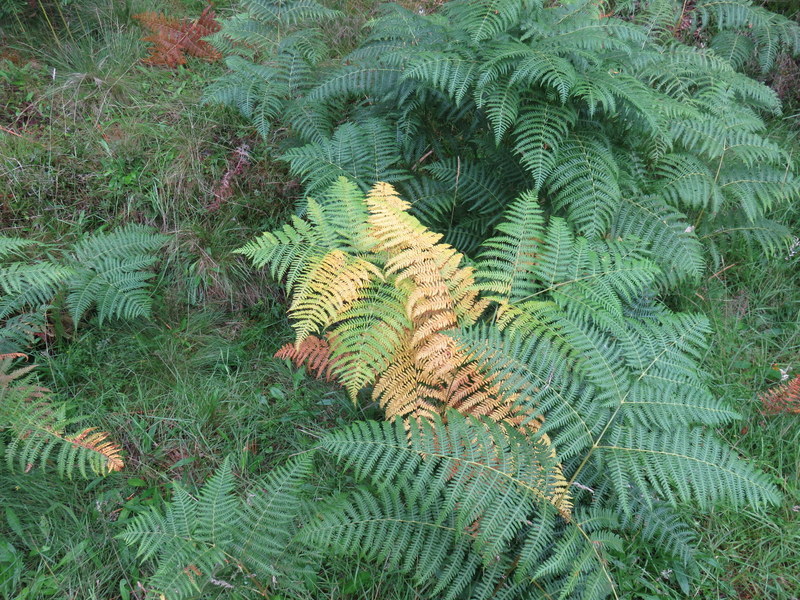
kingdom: Plantae
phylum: Tracheophyta
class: Polypodiopsida
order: Polypodiales
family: Dennstaedtiaceae
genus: Pteridium
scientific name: Pteridium aquilinum
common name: Bracken
